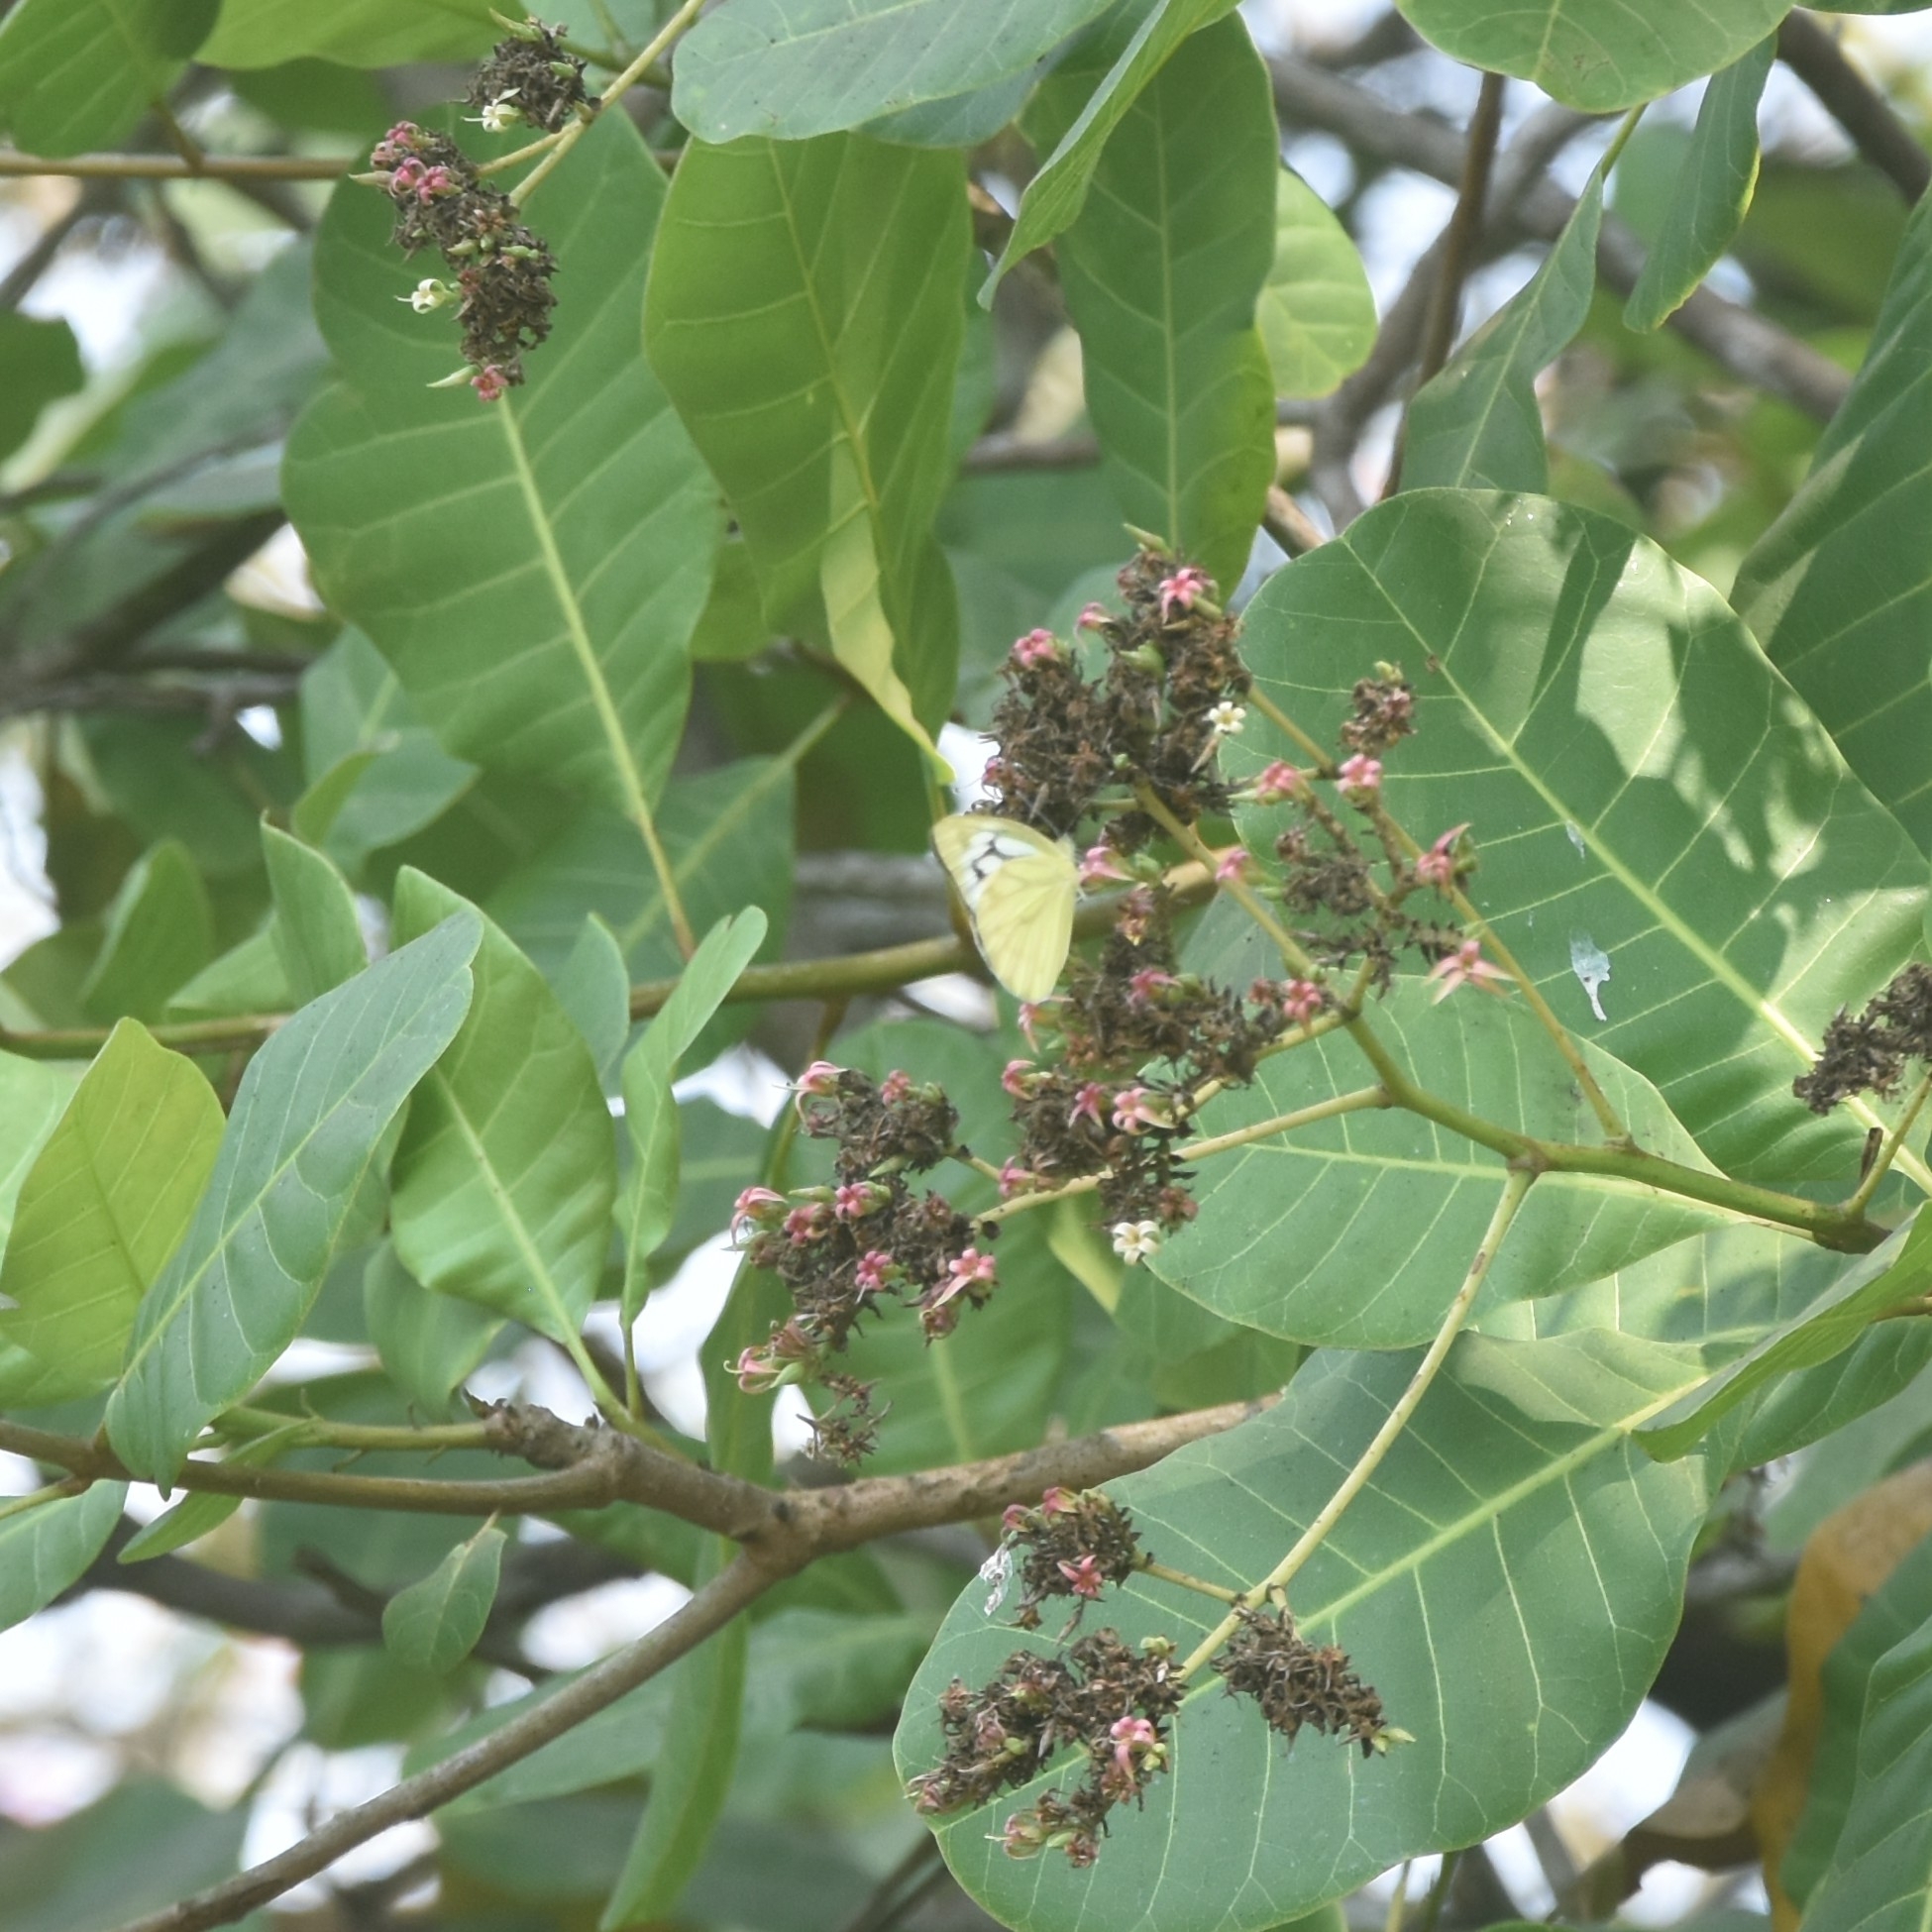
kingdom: Animalia
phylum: Arthropoda
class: Insecta
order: Lepidoptera
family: Pieridae
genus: Cepora
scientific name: Cepora nerissa
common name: Common gull
